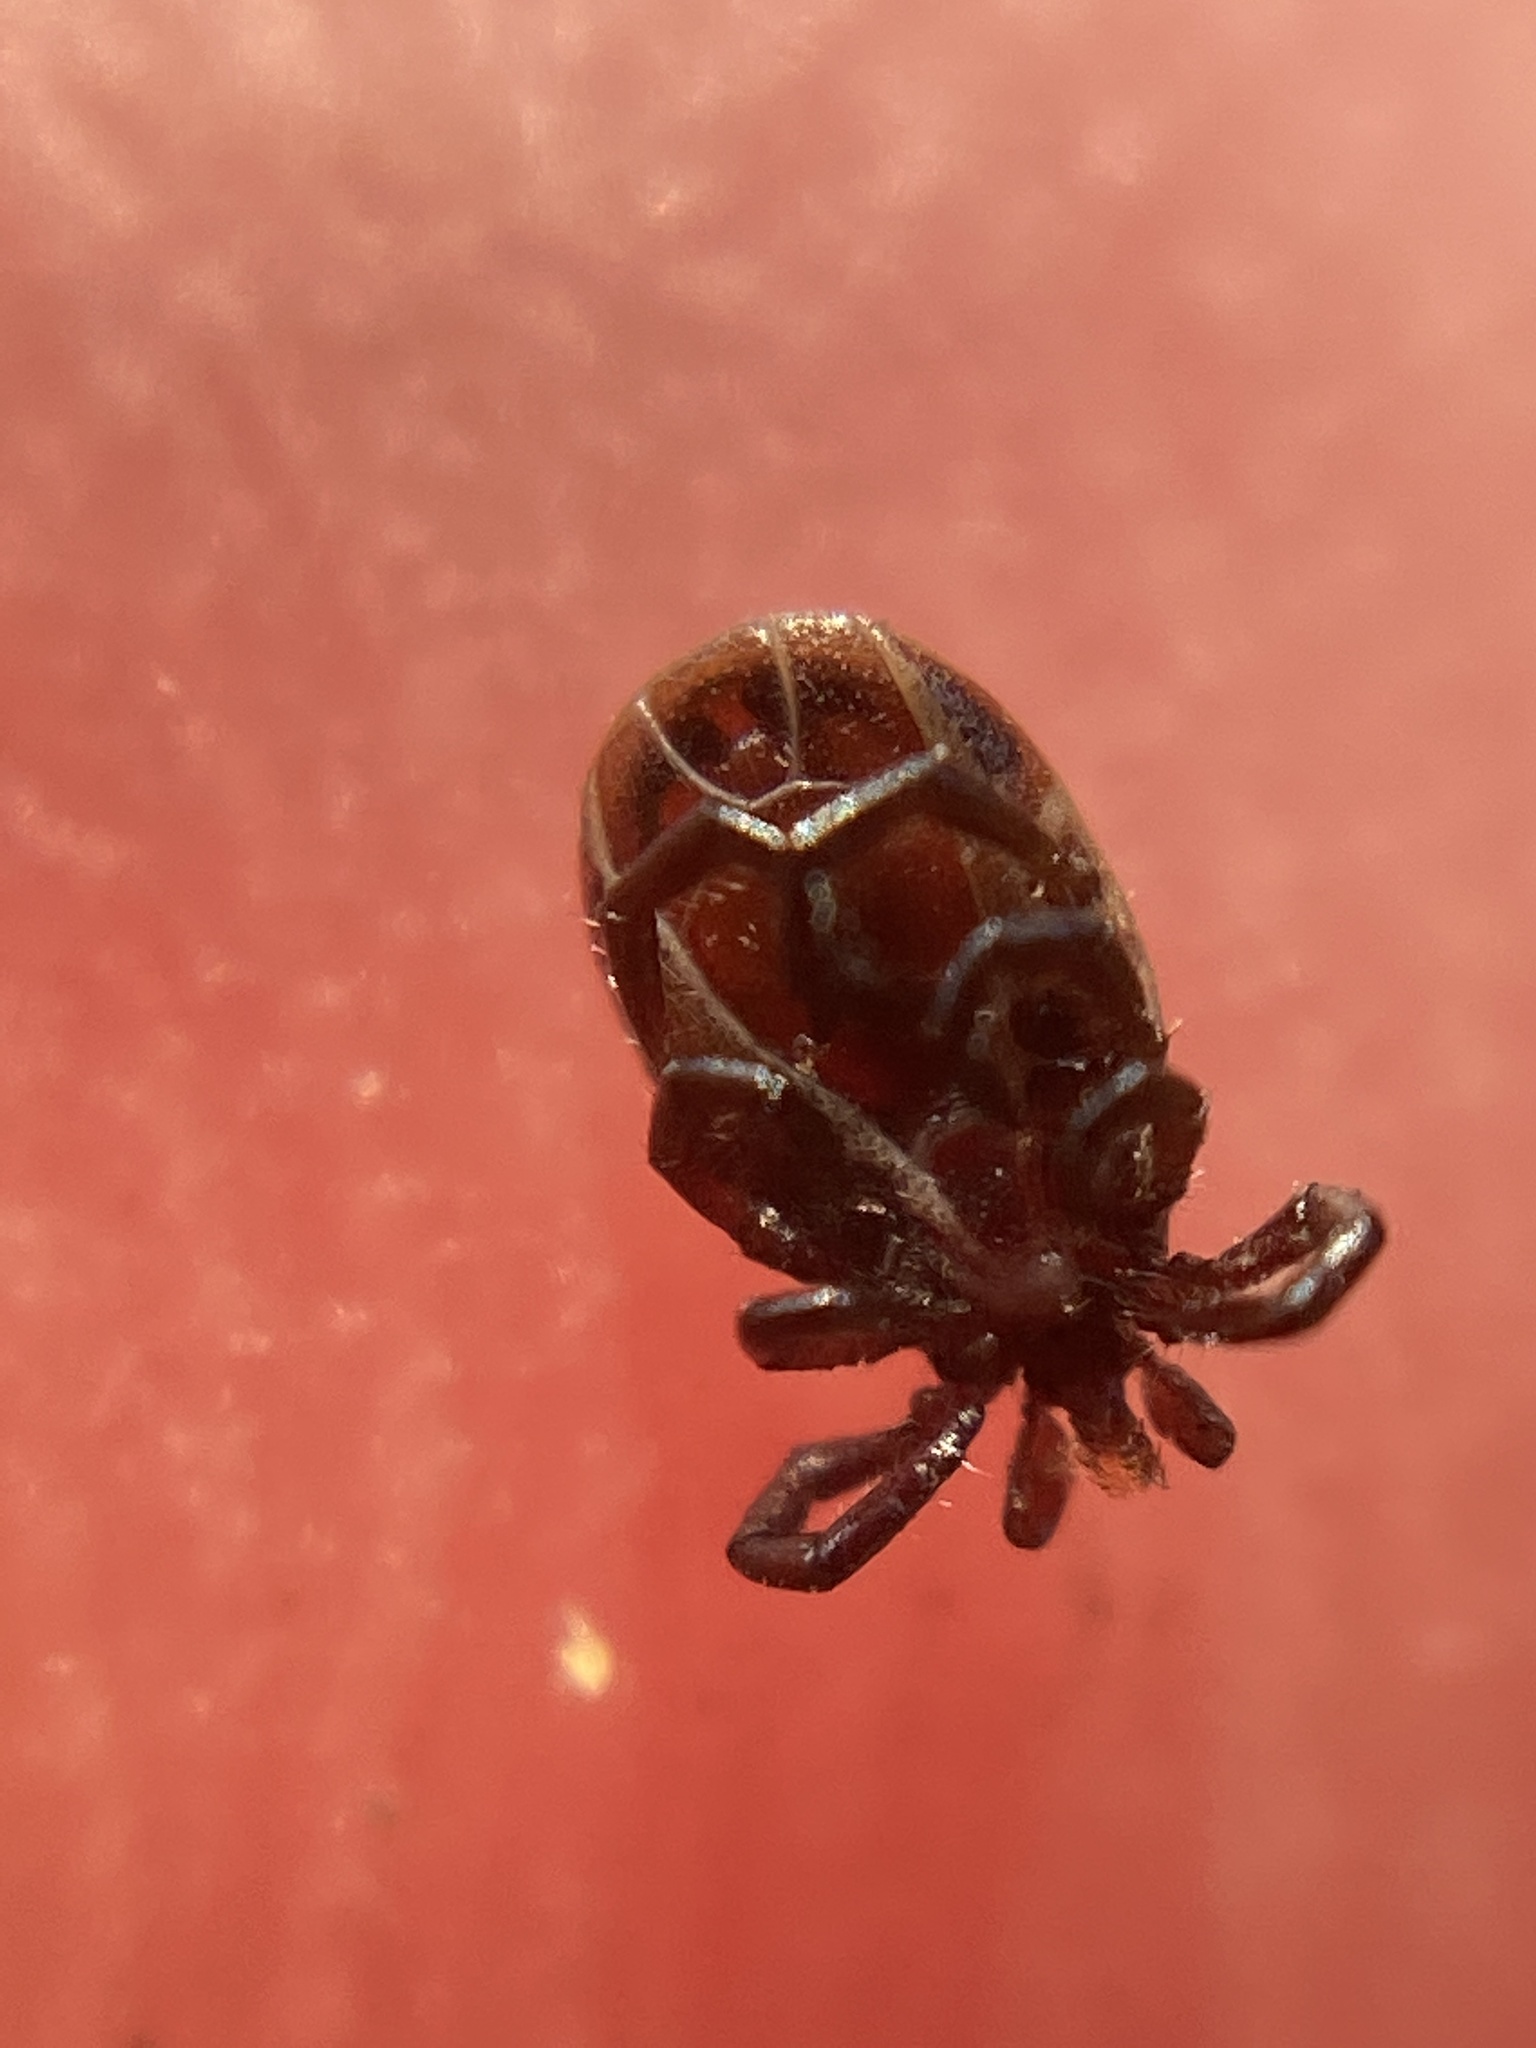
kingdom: Animalia
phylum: Arthropoda
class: Arachnida
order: Ixodida
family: Ixodidae
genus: Ixodes
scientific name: Ixodes ricinus
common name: Castor bean tick
